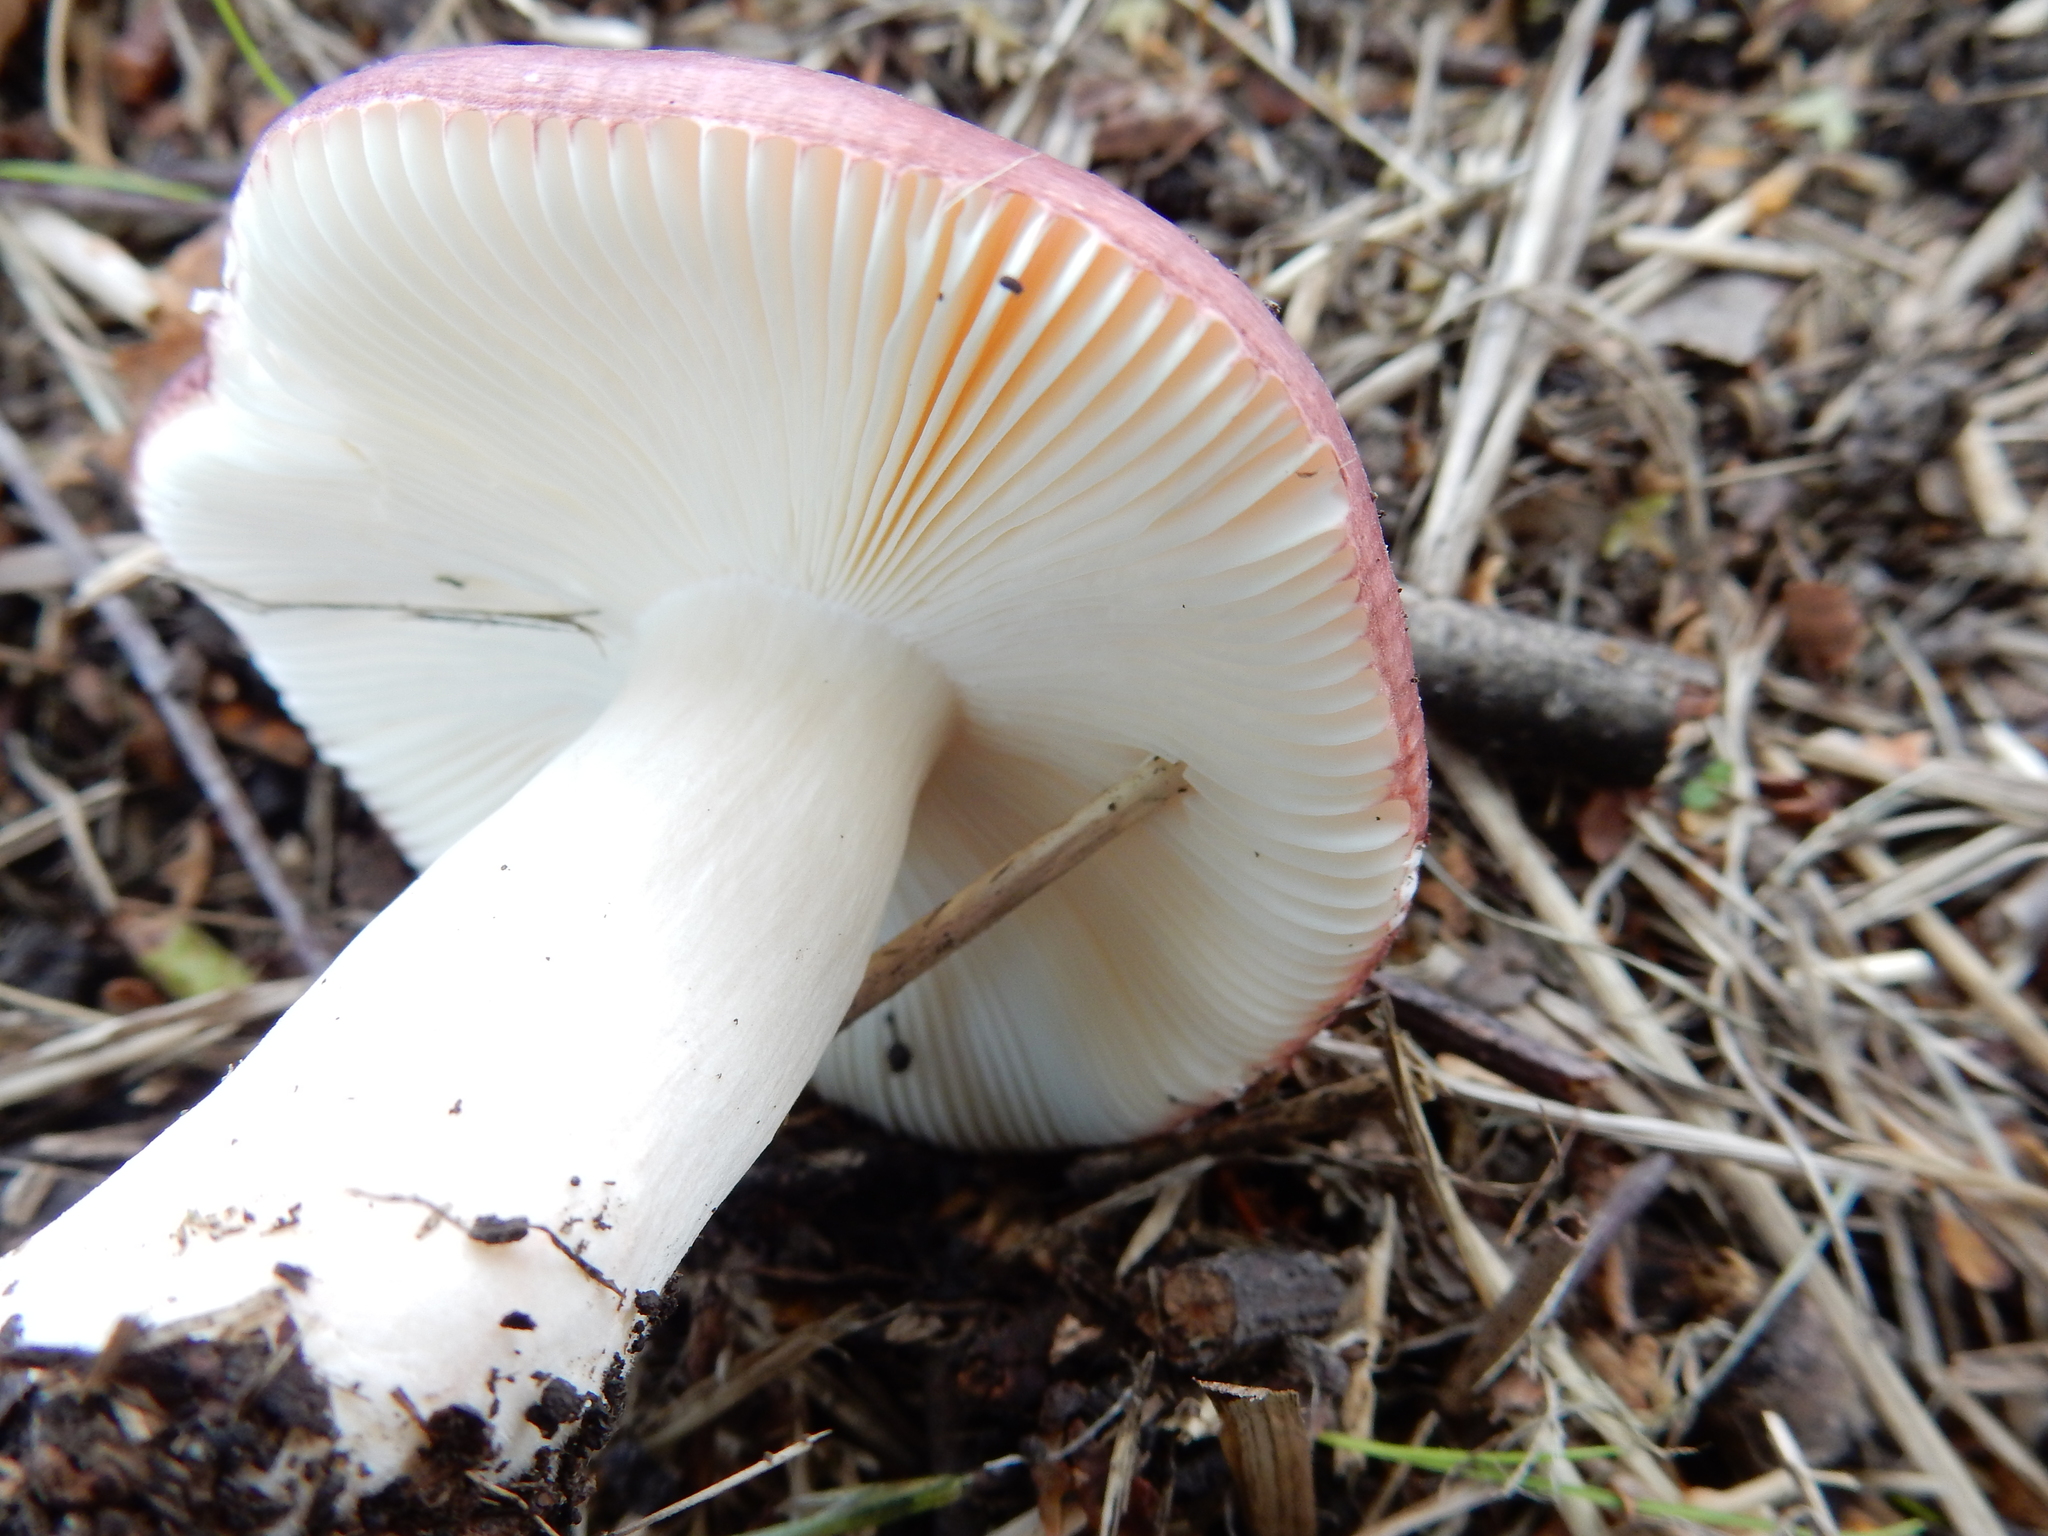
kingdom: Fungi
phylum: Basidiomycota
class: Agaricomycetes
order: Russulales
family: Russulaceae
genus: Russula
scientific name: Russula nitida
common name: Purple swamp brittlegill
